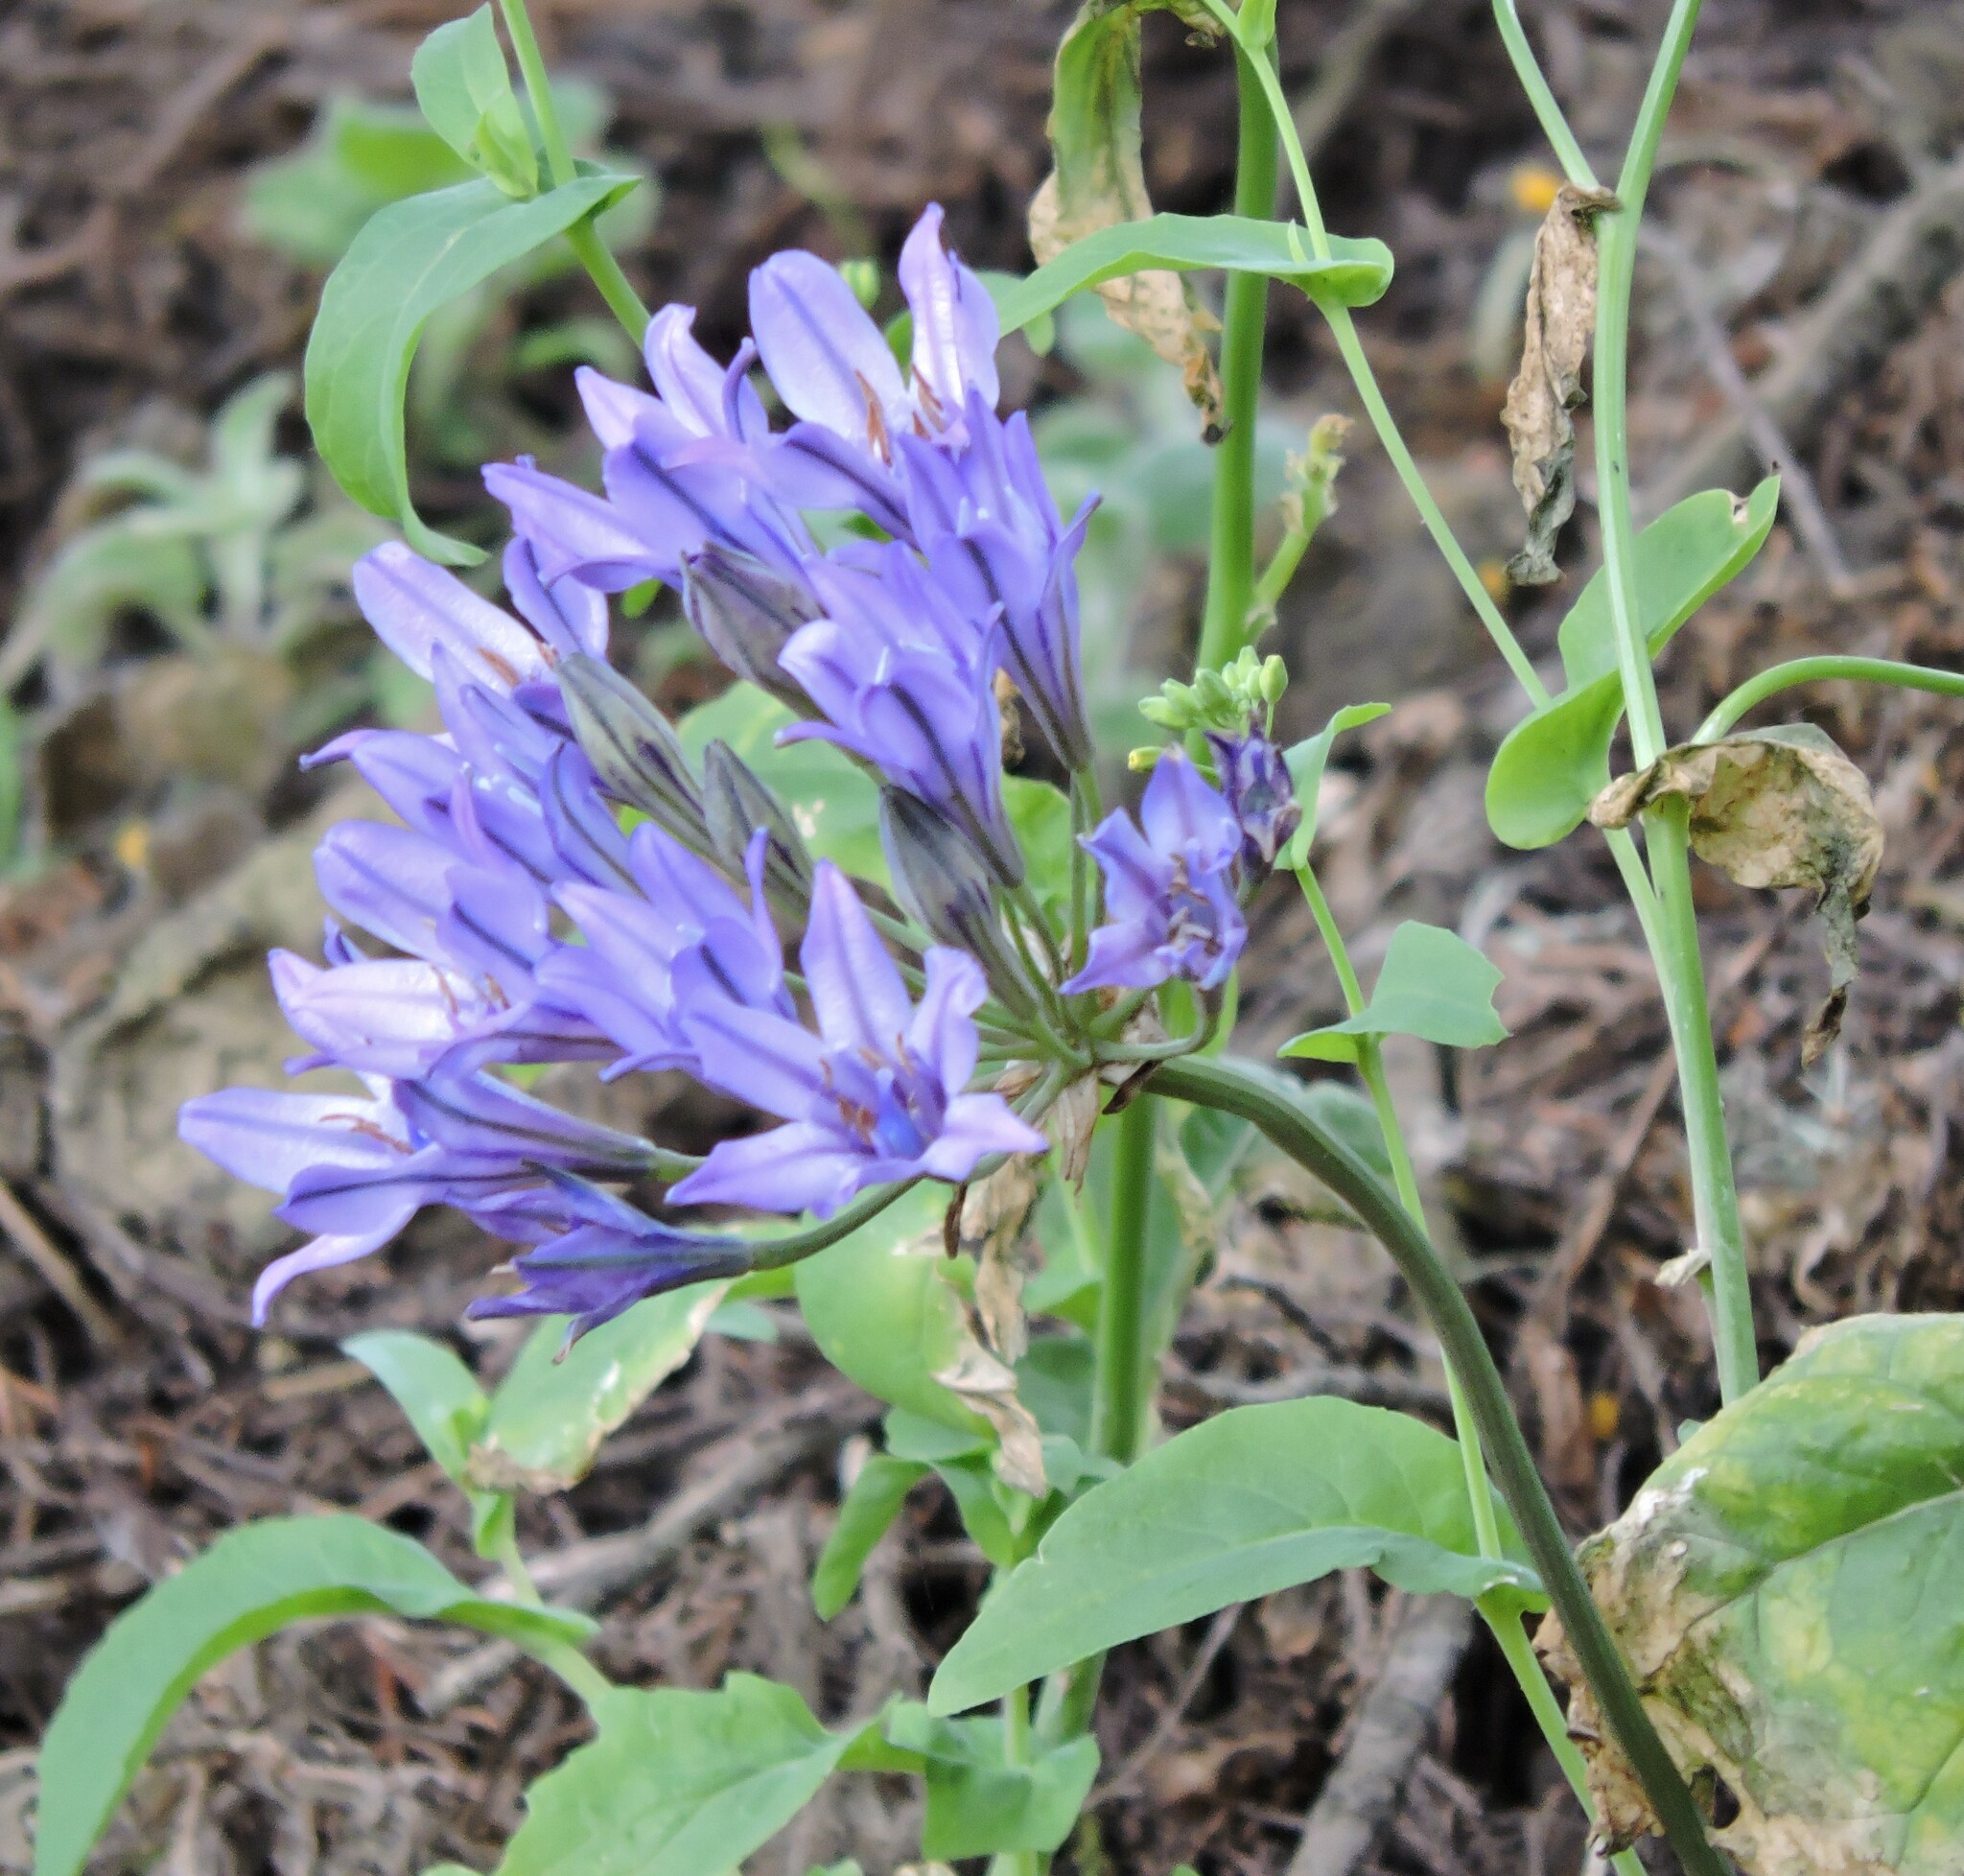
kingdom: Plantae
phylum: Tracheophyta
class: Liliopsida
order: Asparagales
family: Asparagaceae
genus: Triteleia
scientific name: Triteleia laxa
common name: Triplet-lily
